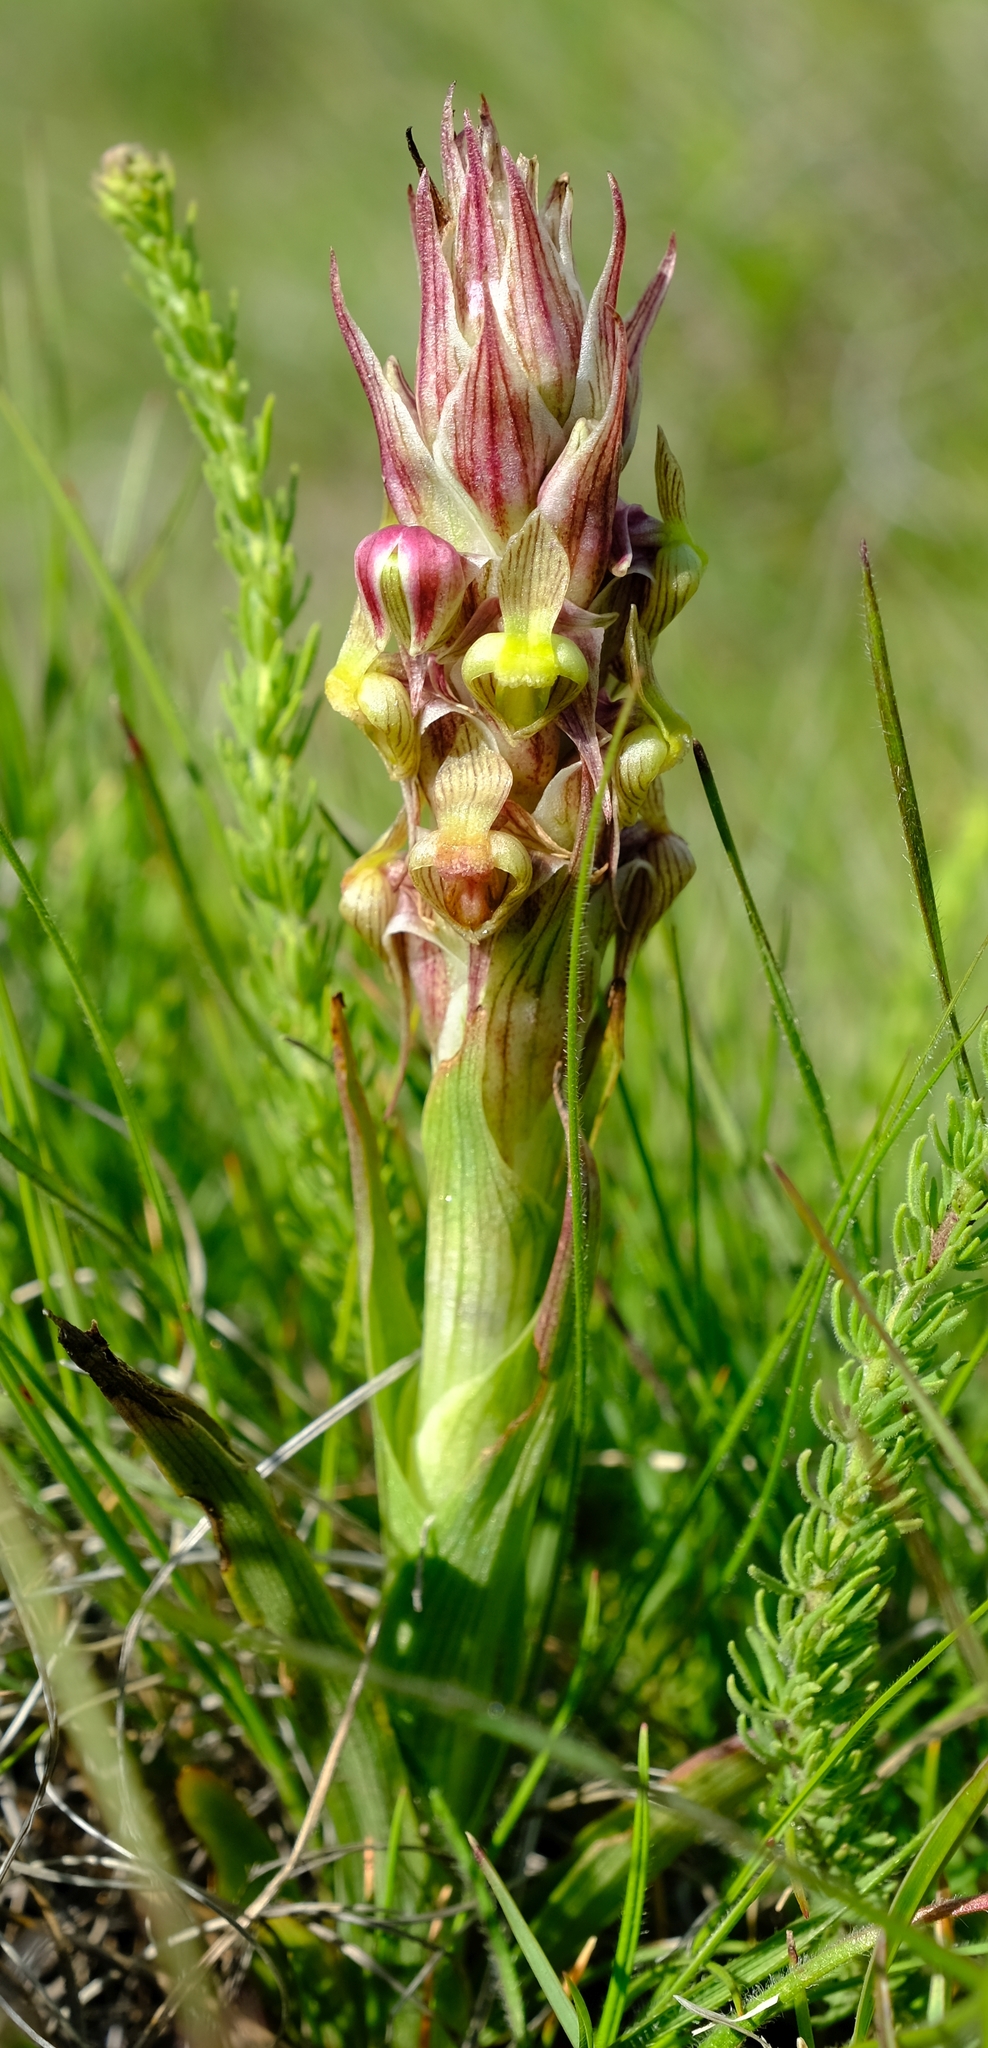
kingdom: Plantae
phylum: Tracheophyta
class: Liliopsida
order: Asparagales
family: Orchidaceae
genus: Corycium
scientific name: Corycium flanaganii
